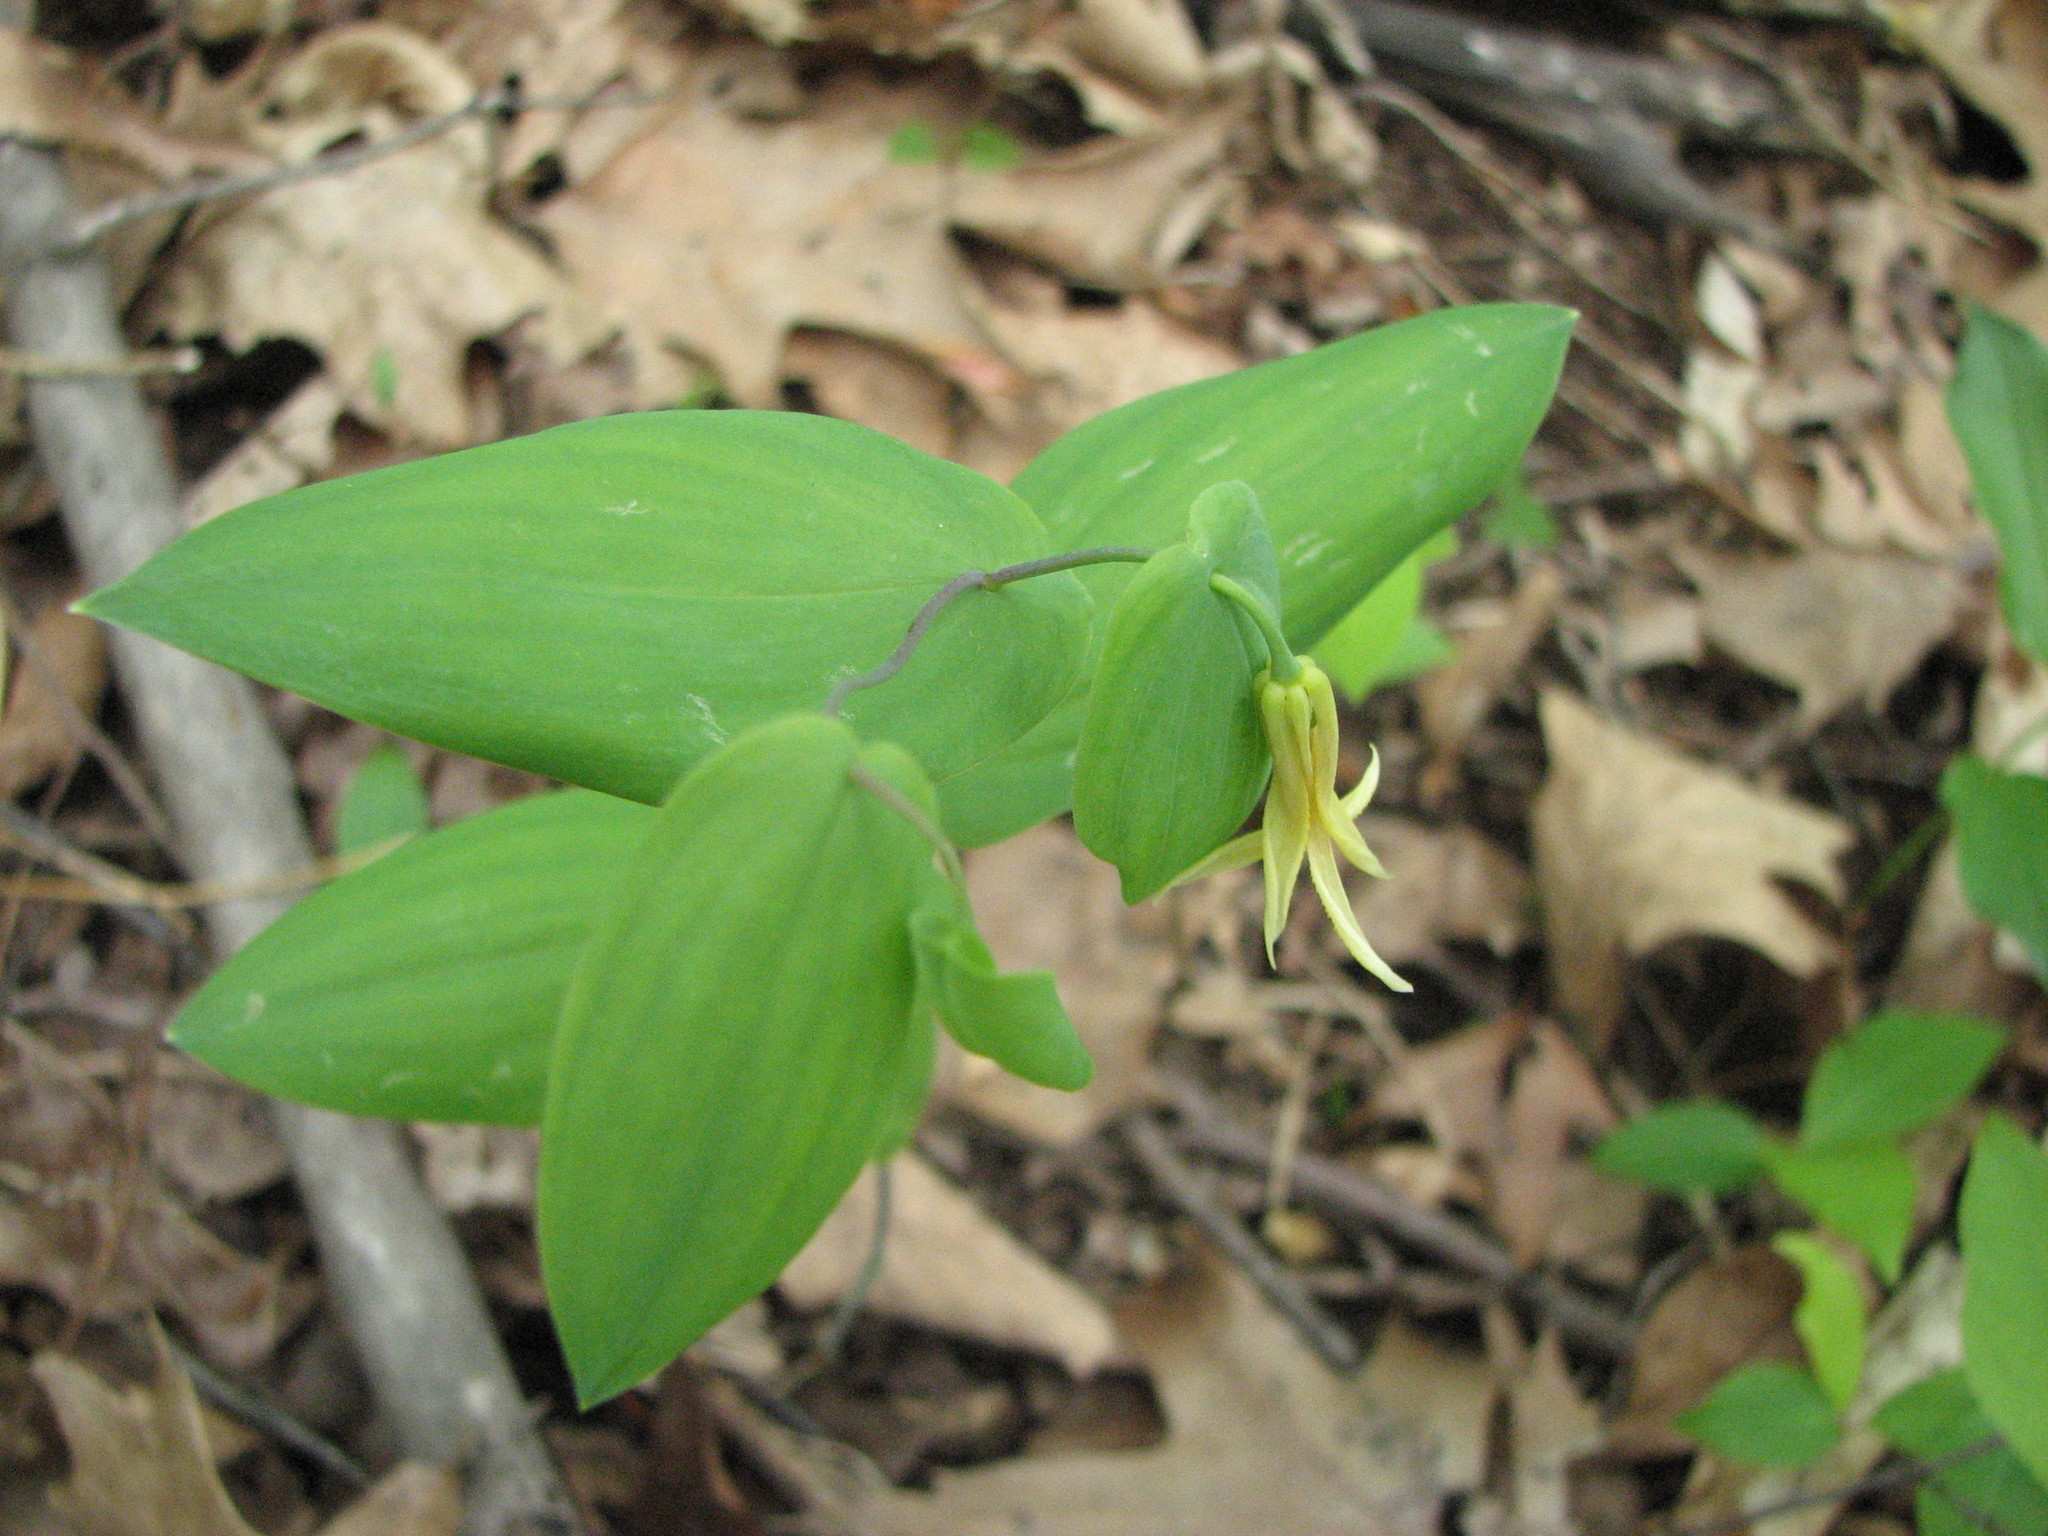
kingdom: Plantae
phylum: Tracheophyta
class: Liliopsida
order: Liliales
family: Colchicaceae
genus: Uvularia
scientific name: Uvularia perfoliata
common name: Perfoliate bellwort
